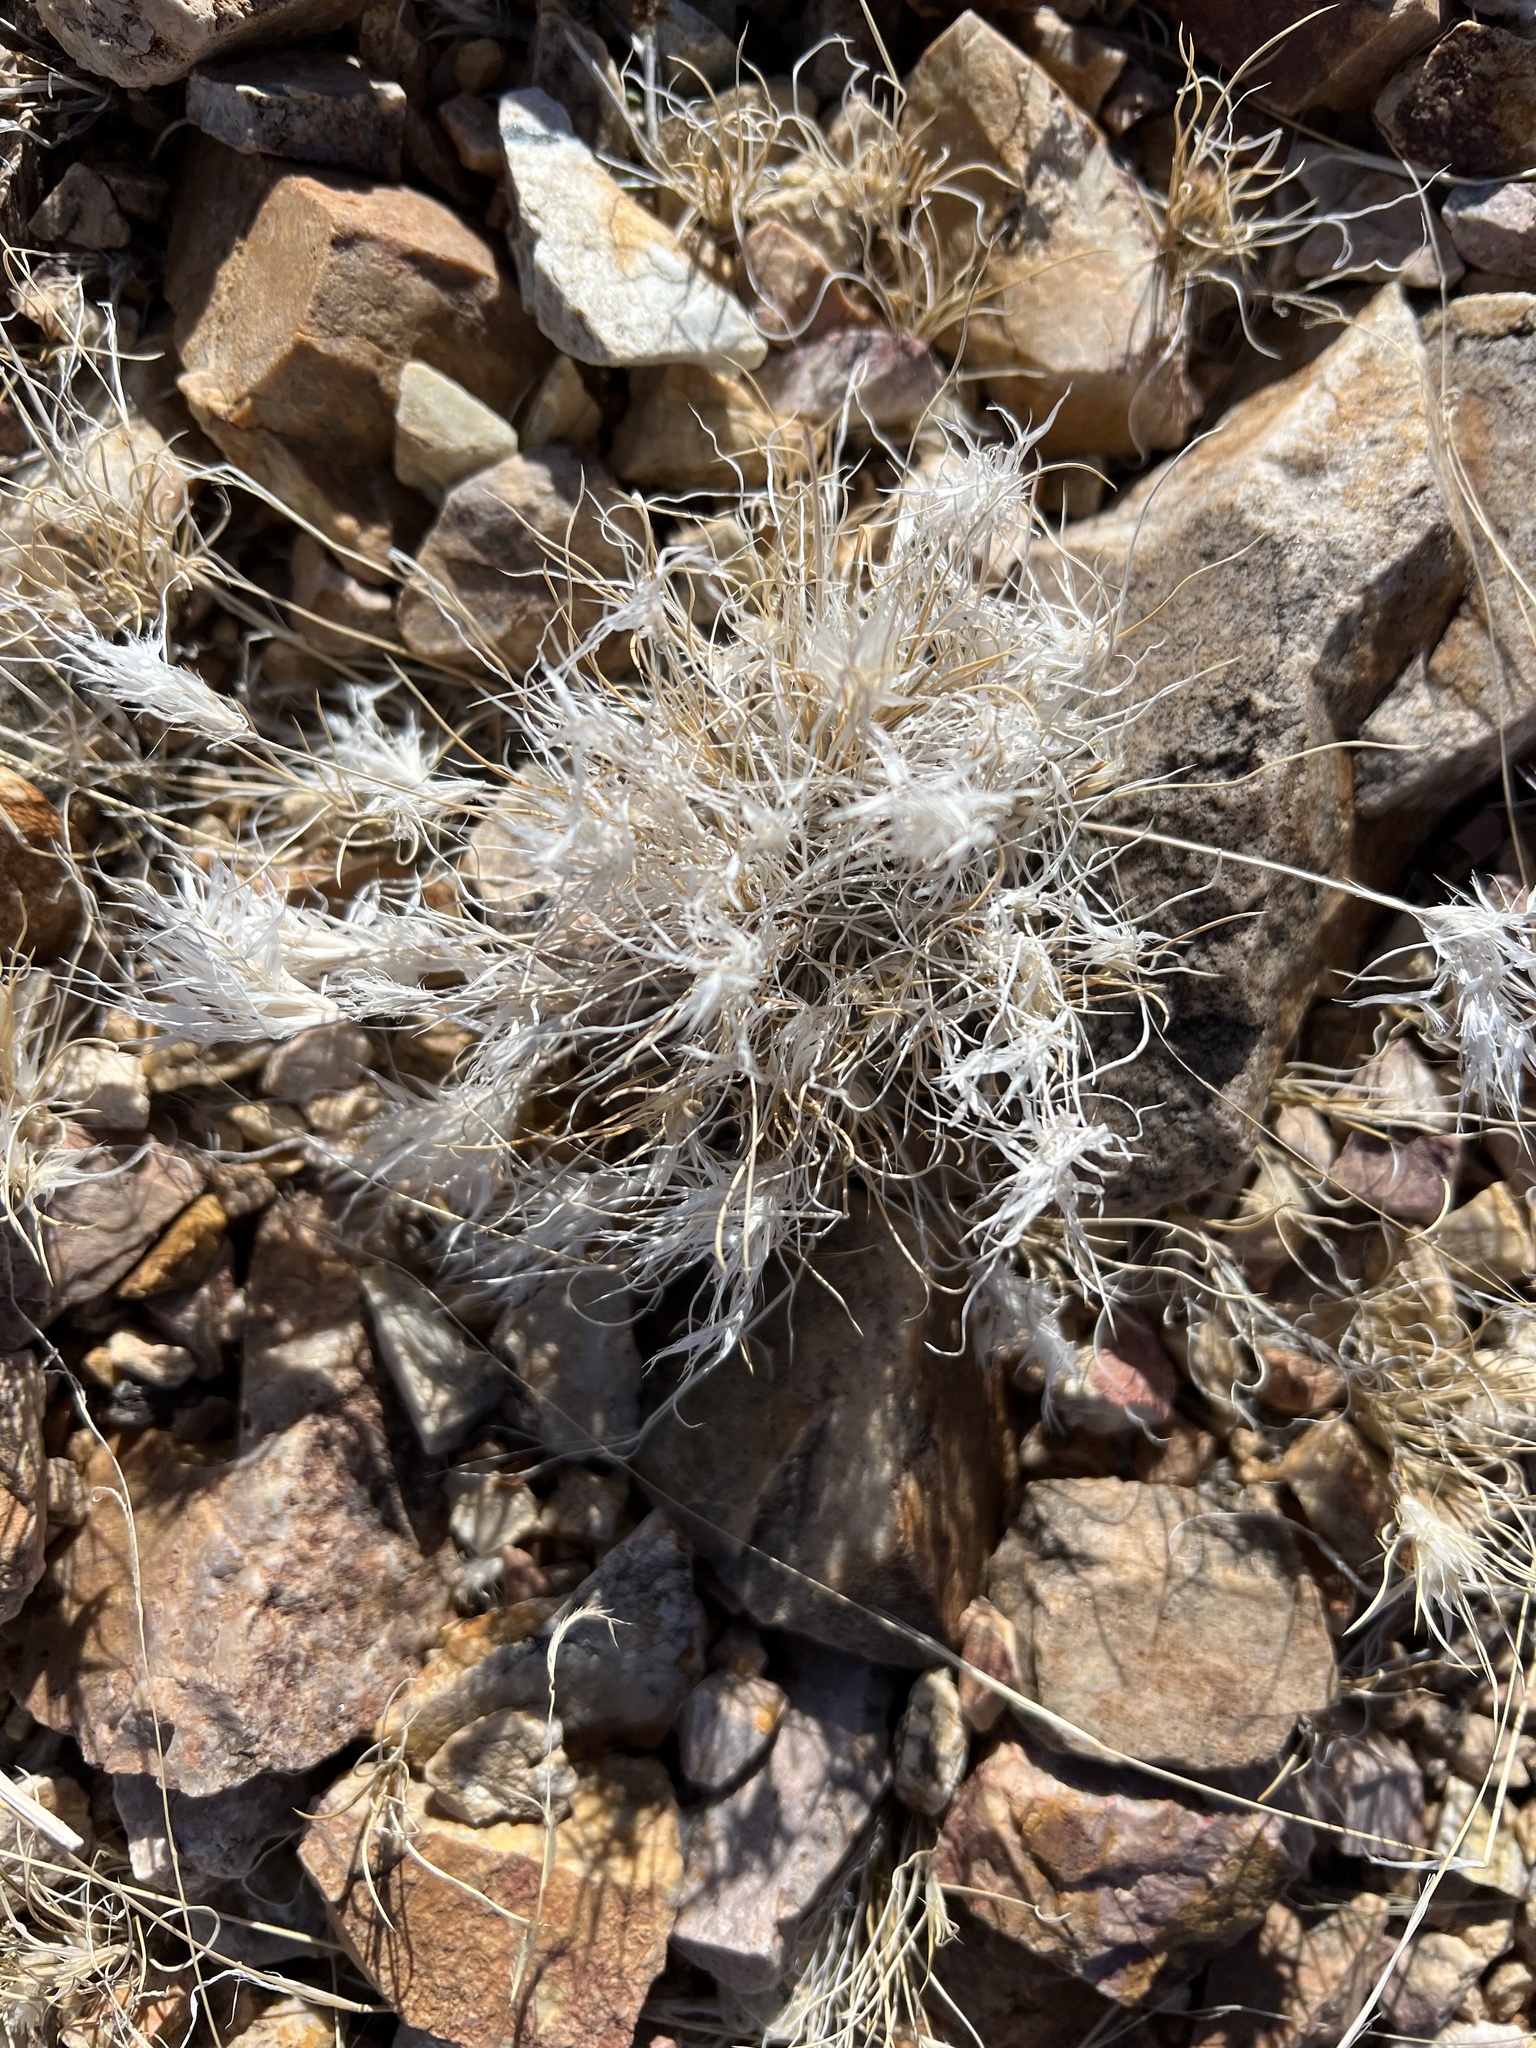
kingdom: Plantae
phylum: Tracheophyta
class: Liliopsida
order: Poales
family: Poaceae
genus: Dasyochloa
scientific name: Dasyochloa pulchella
